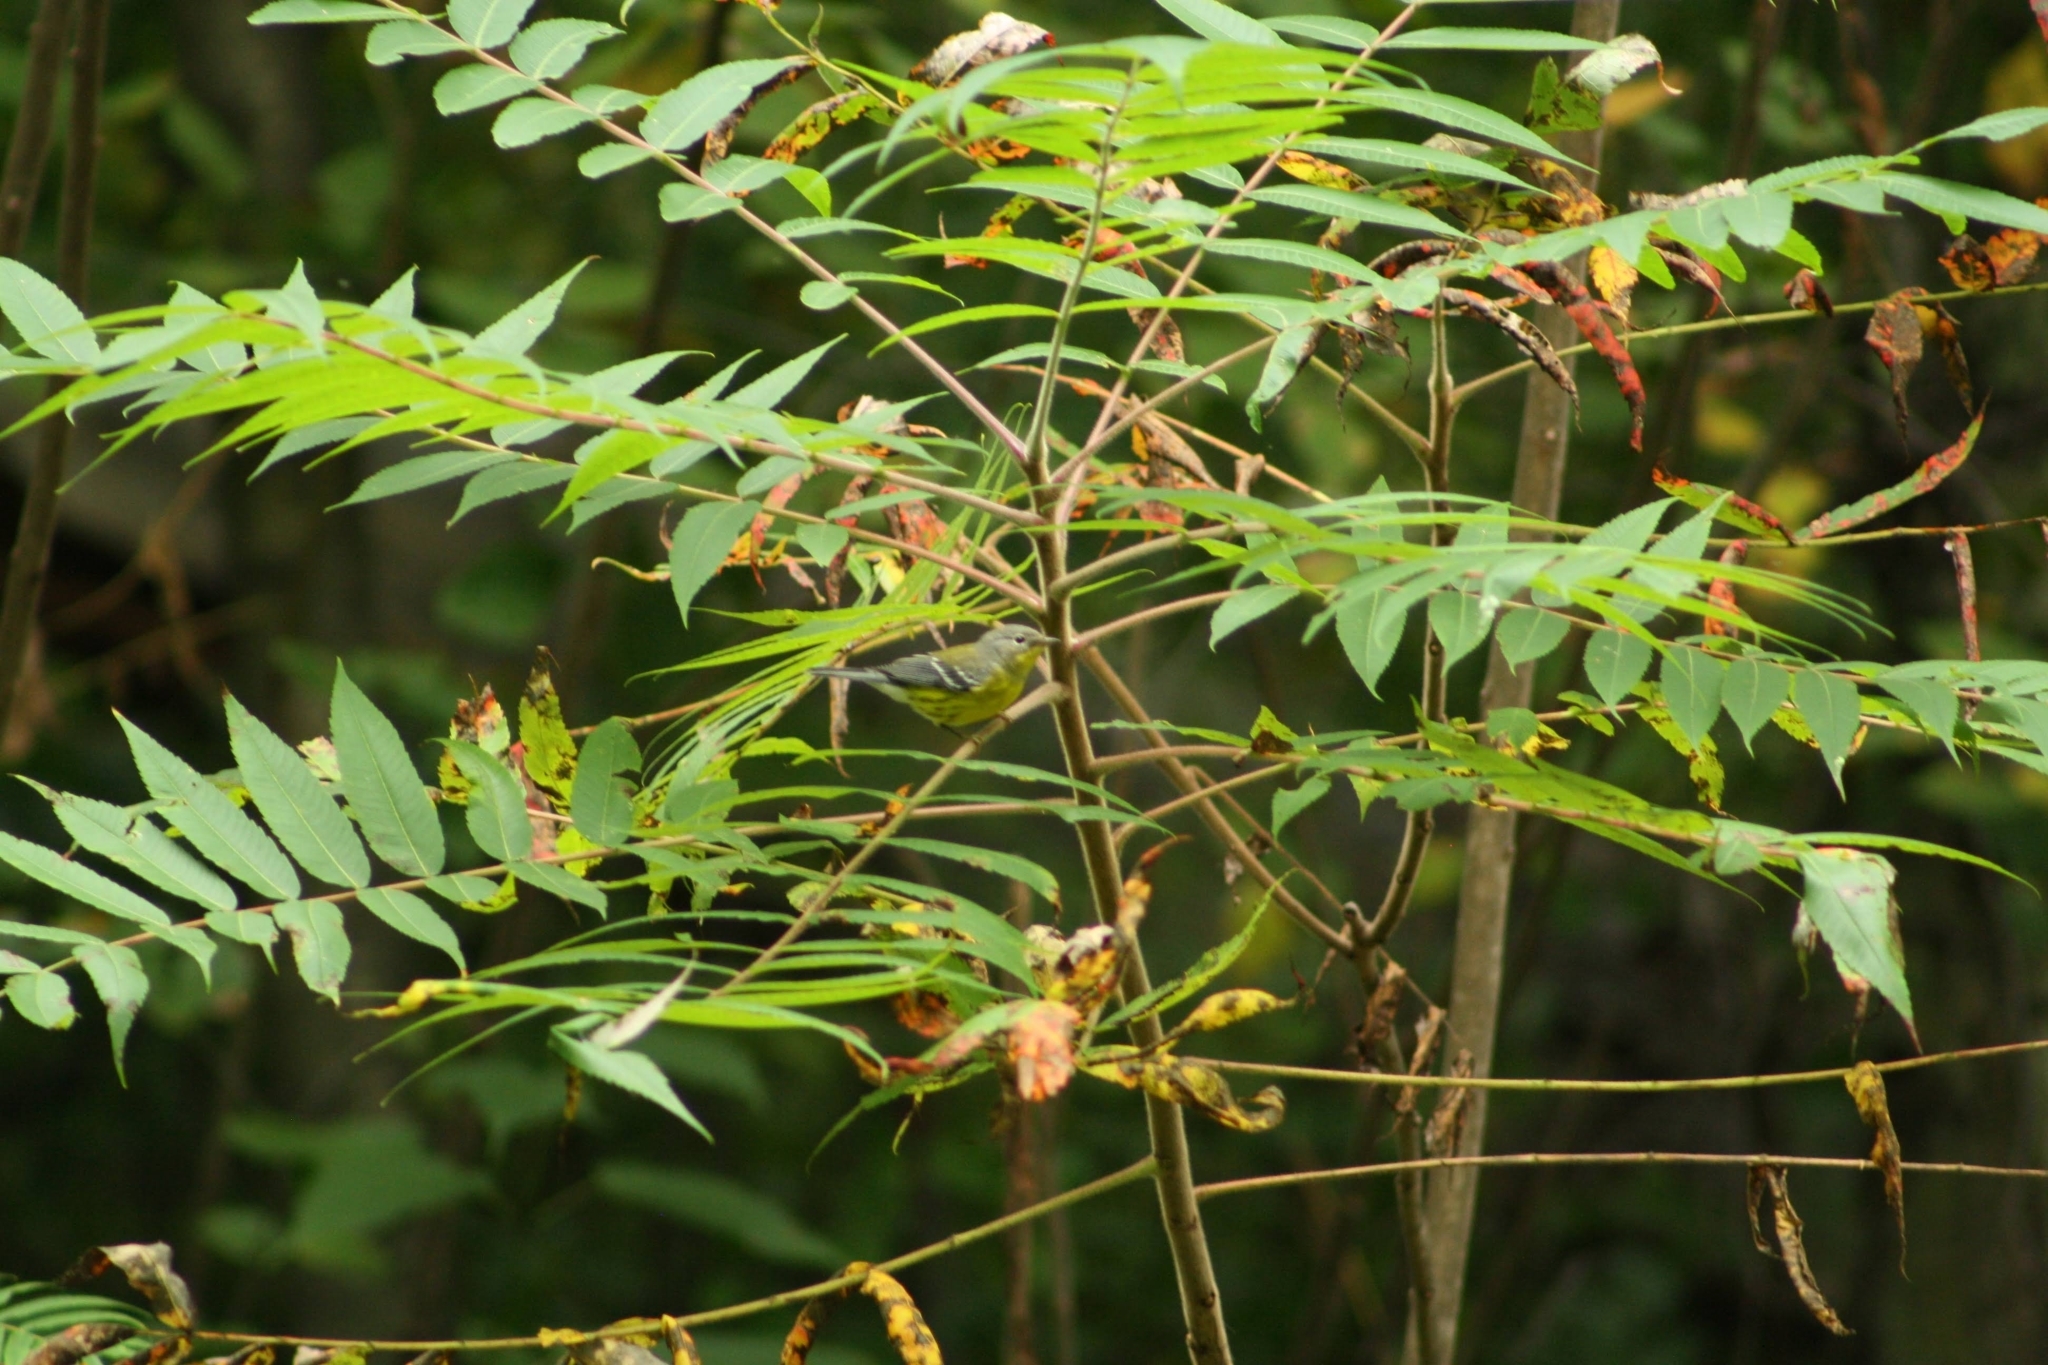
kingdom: Animalia
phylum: Chordata
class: Aves
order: Passeriformes
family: Parulidae
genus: Setophaga
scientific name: Setophaga magnolia
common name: Magnolia warbler
